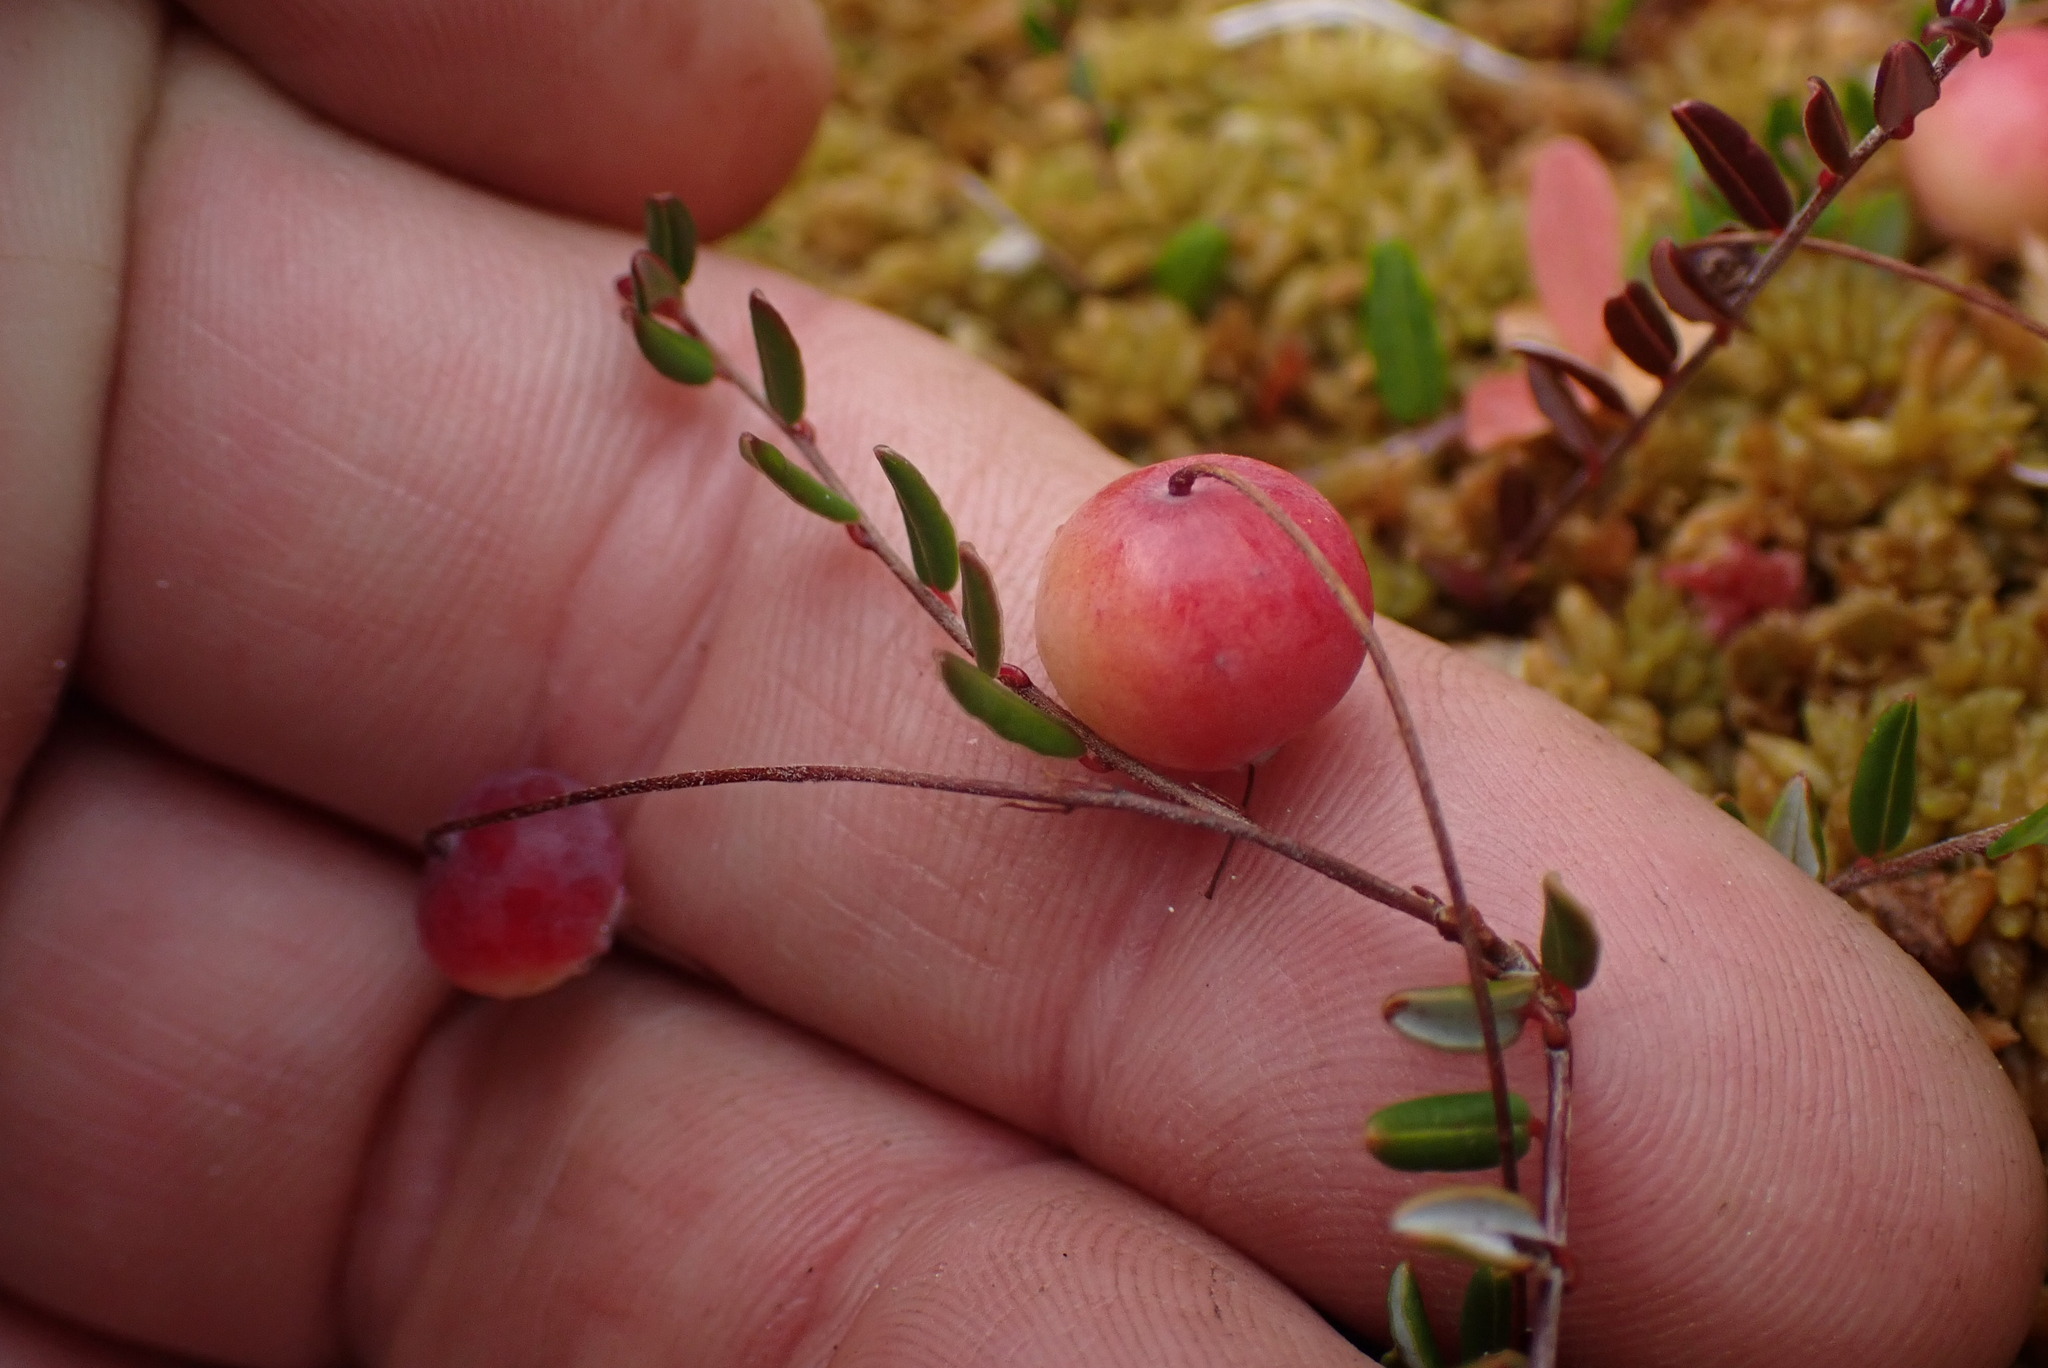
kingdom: Plantae
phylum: Tracheophyta
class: Magnoliopsida
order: Ericales
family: Ericaceae
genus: Vaccinium
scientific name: Vaccinium oxycoccos
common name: Cranberry
